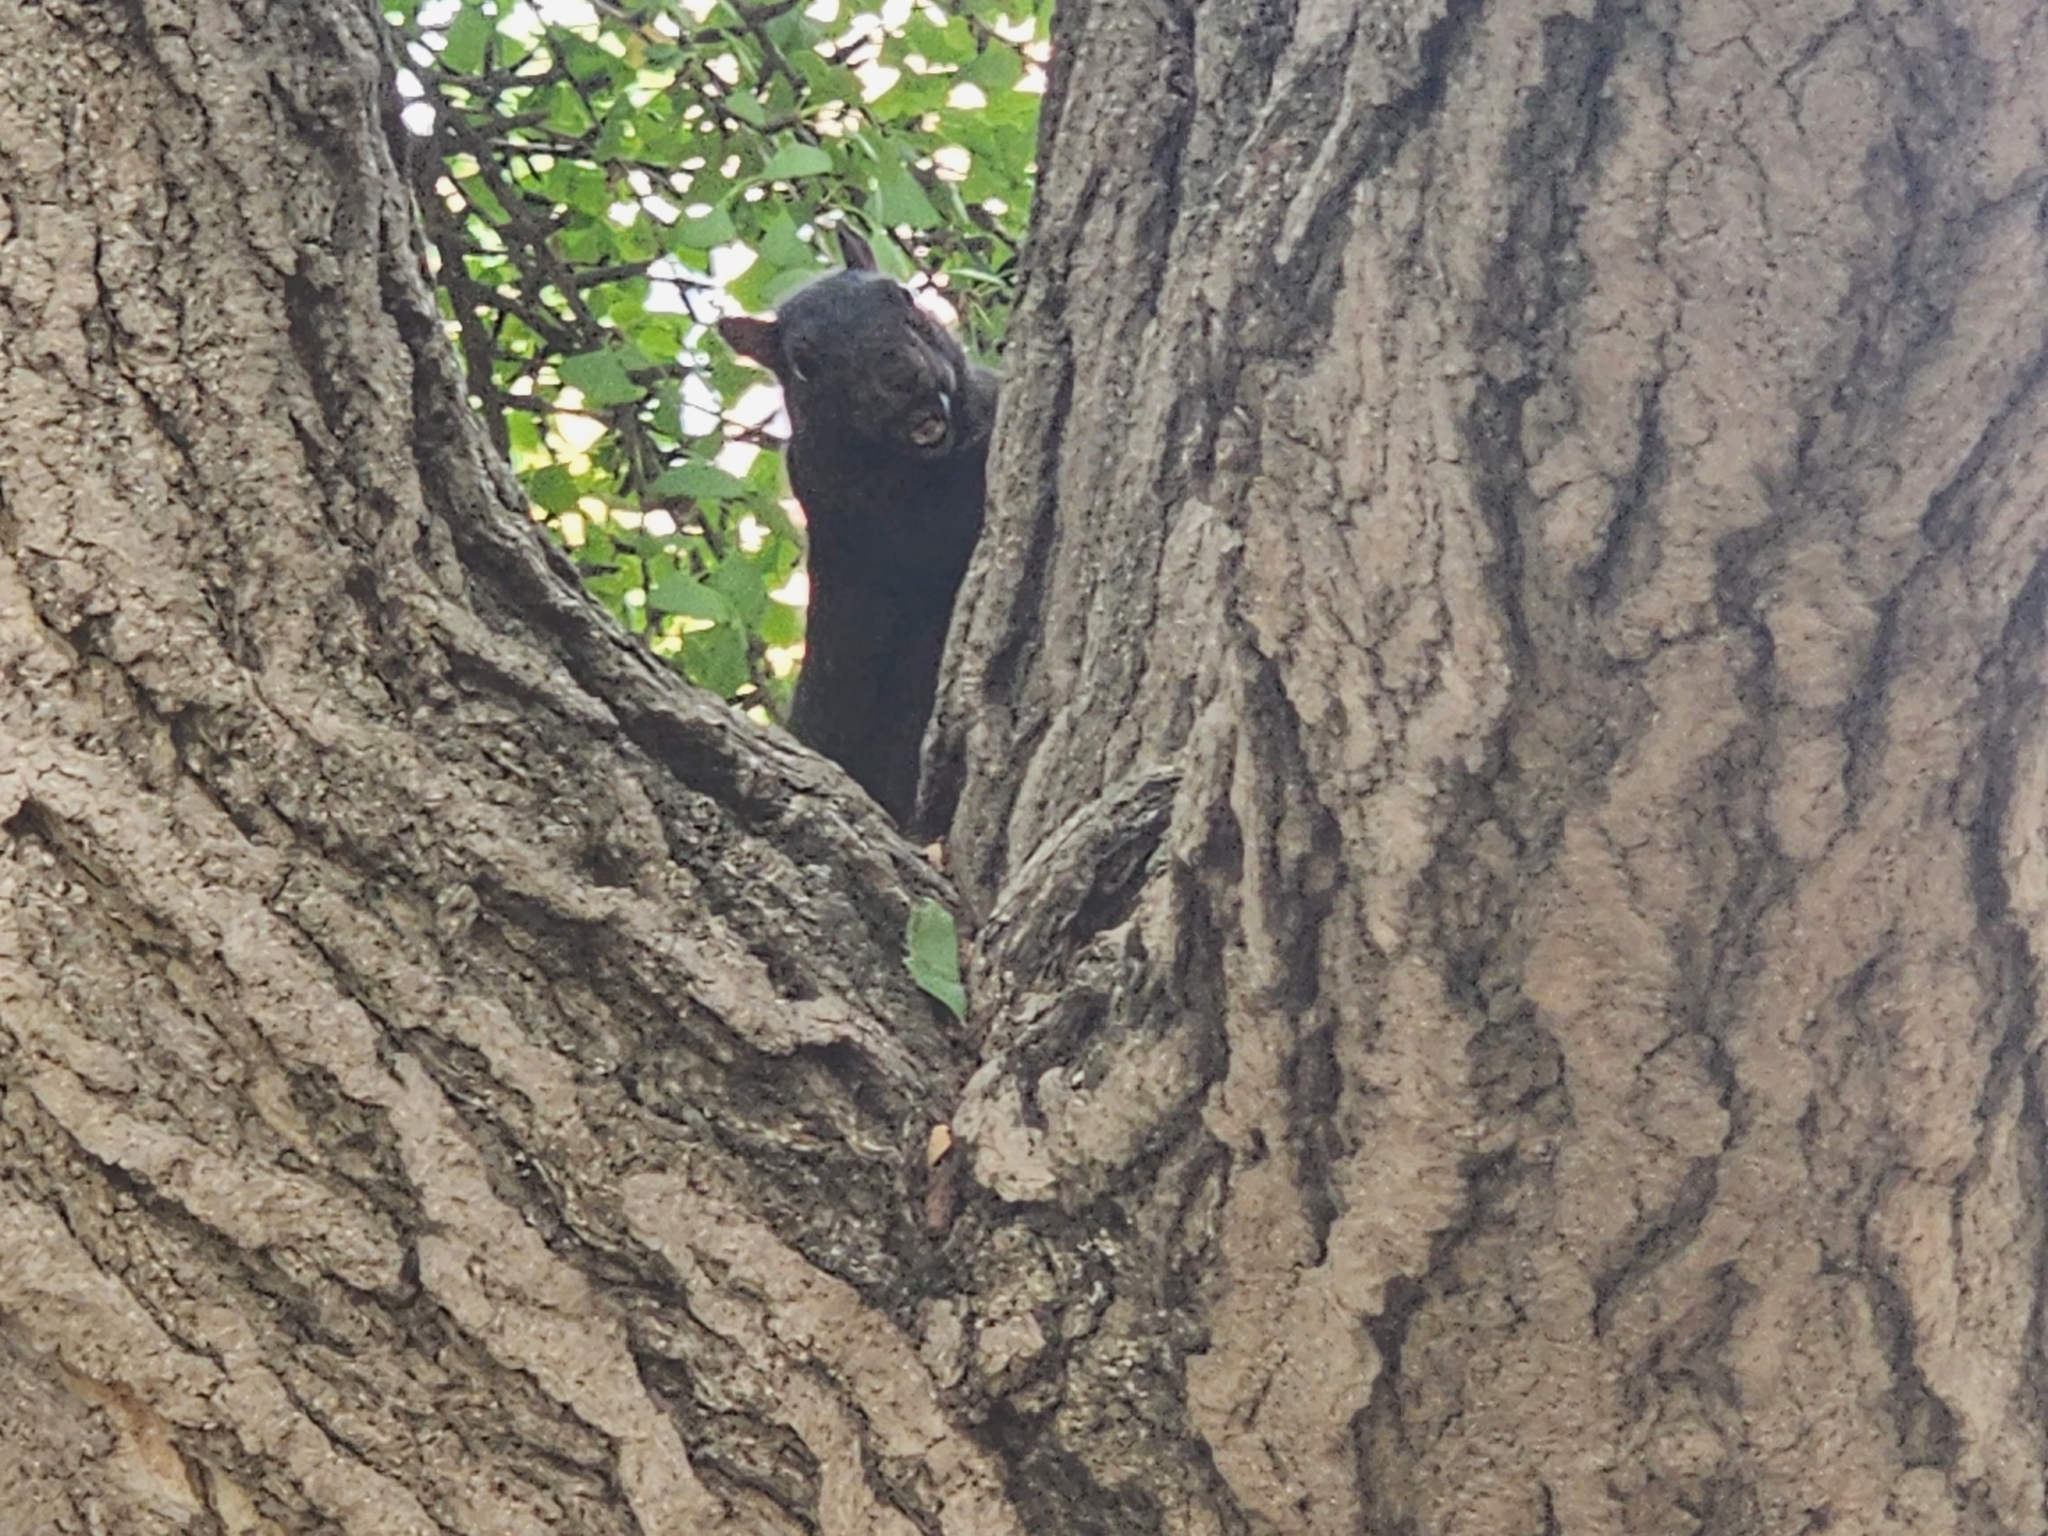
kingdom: Animalia
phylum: Chordata
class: Mammalia
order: Rodentia
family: Sciuridae
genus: Sciurus
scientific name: Sciurus carolinensis
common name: Eastern gray squirrel
